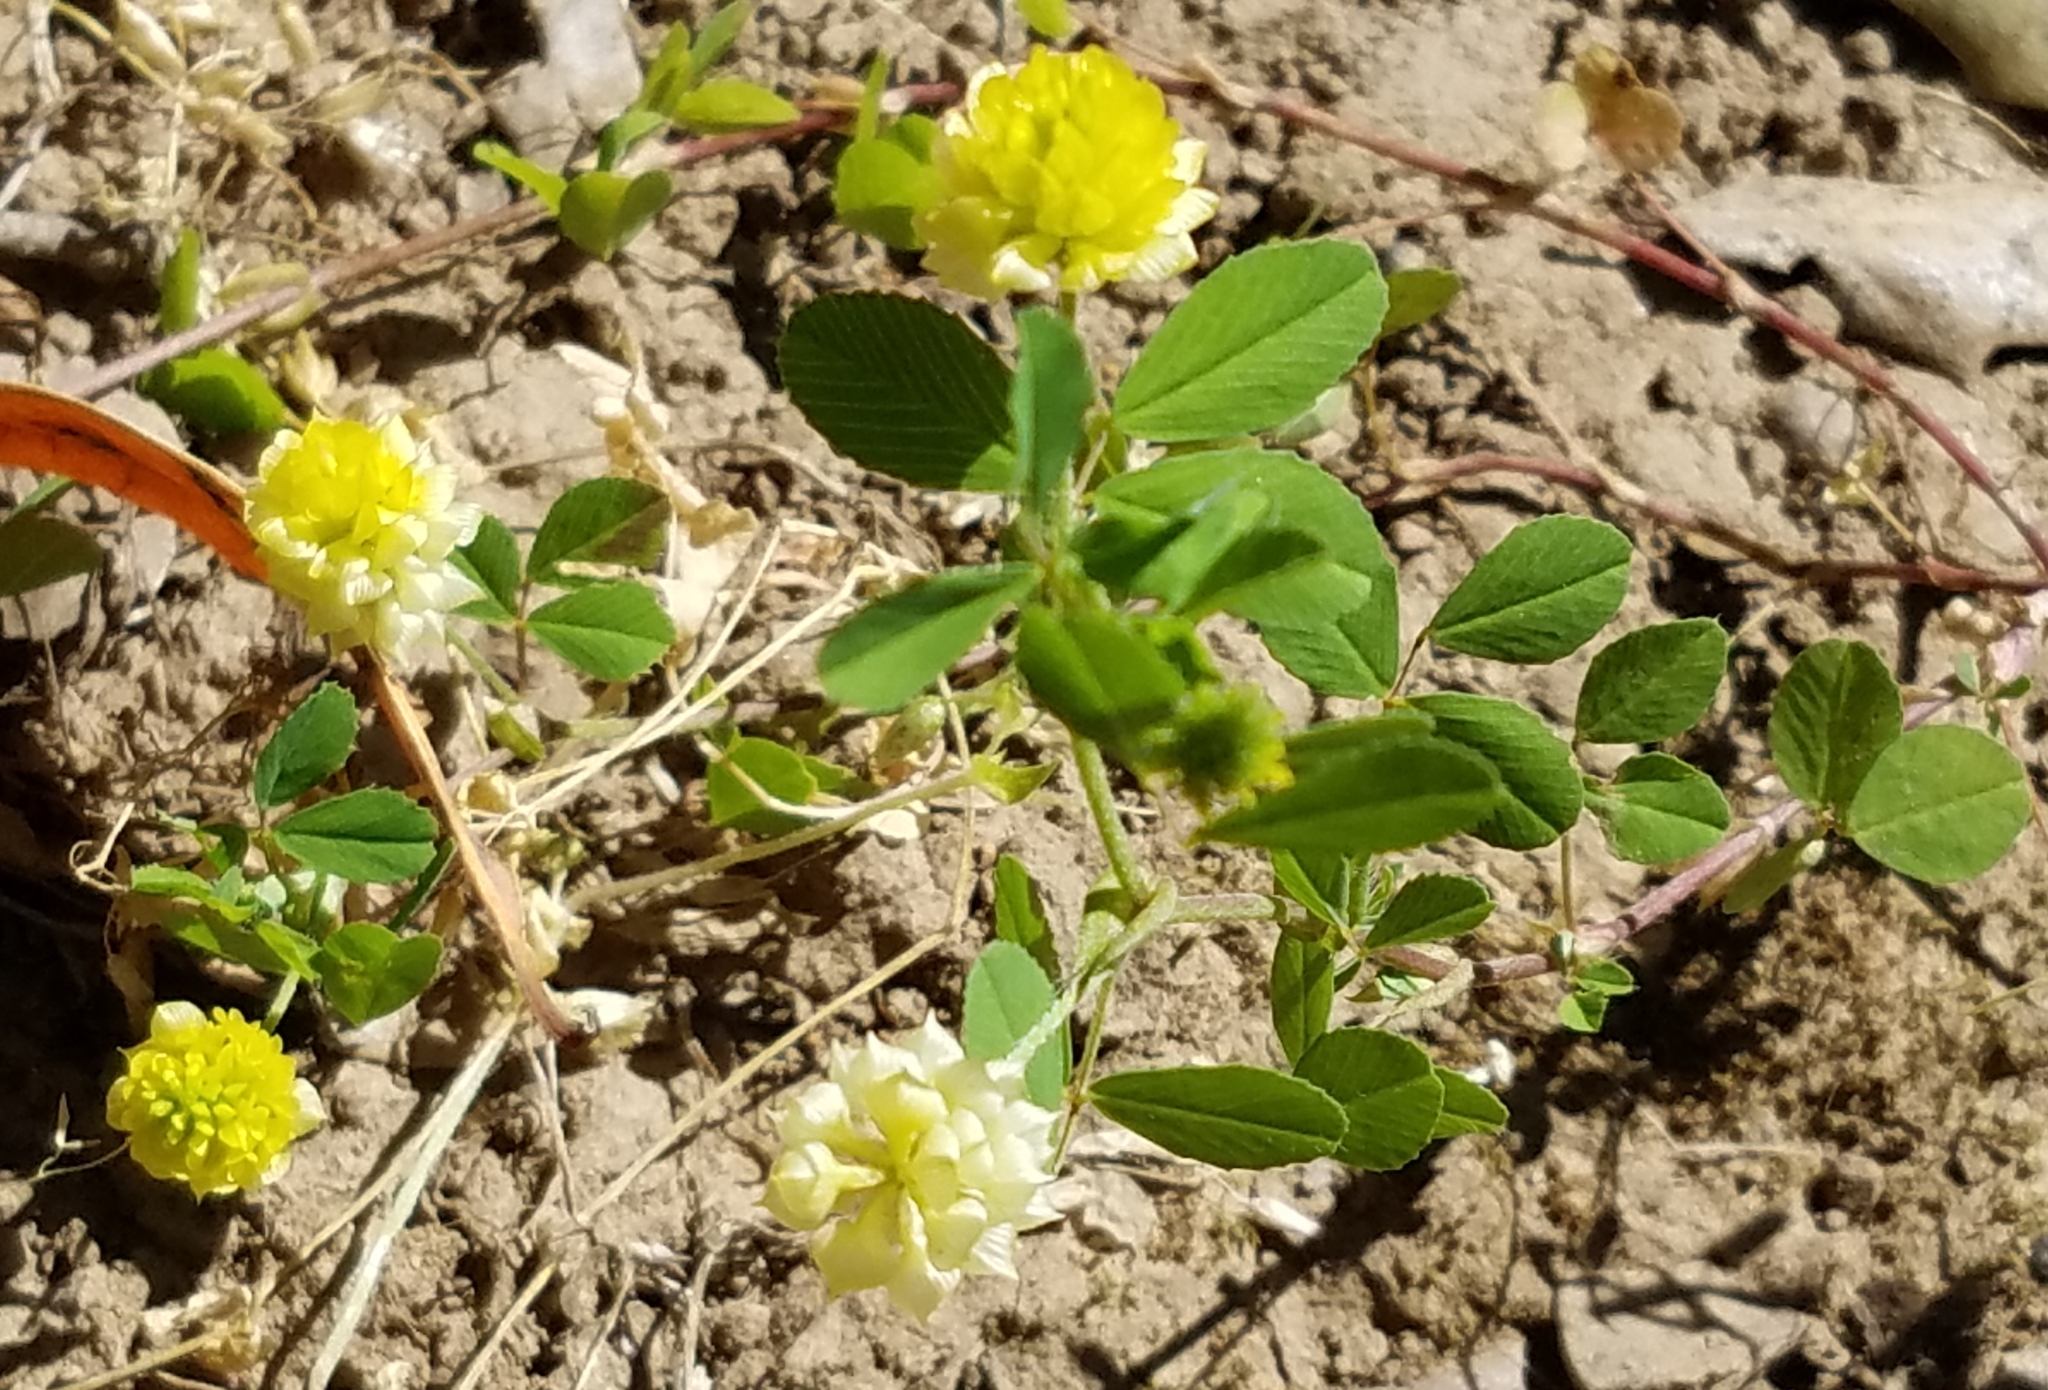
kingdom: Plantae
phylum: Tracheophyta
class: Magnoliopsida
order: Fabales
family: Fabaceae
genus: Trifolium
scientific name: Trifolium campestre
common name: Field clover
